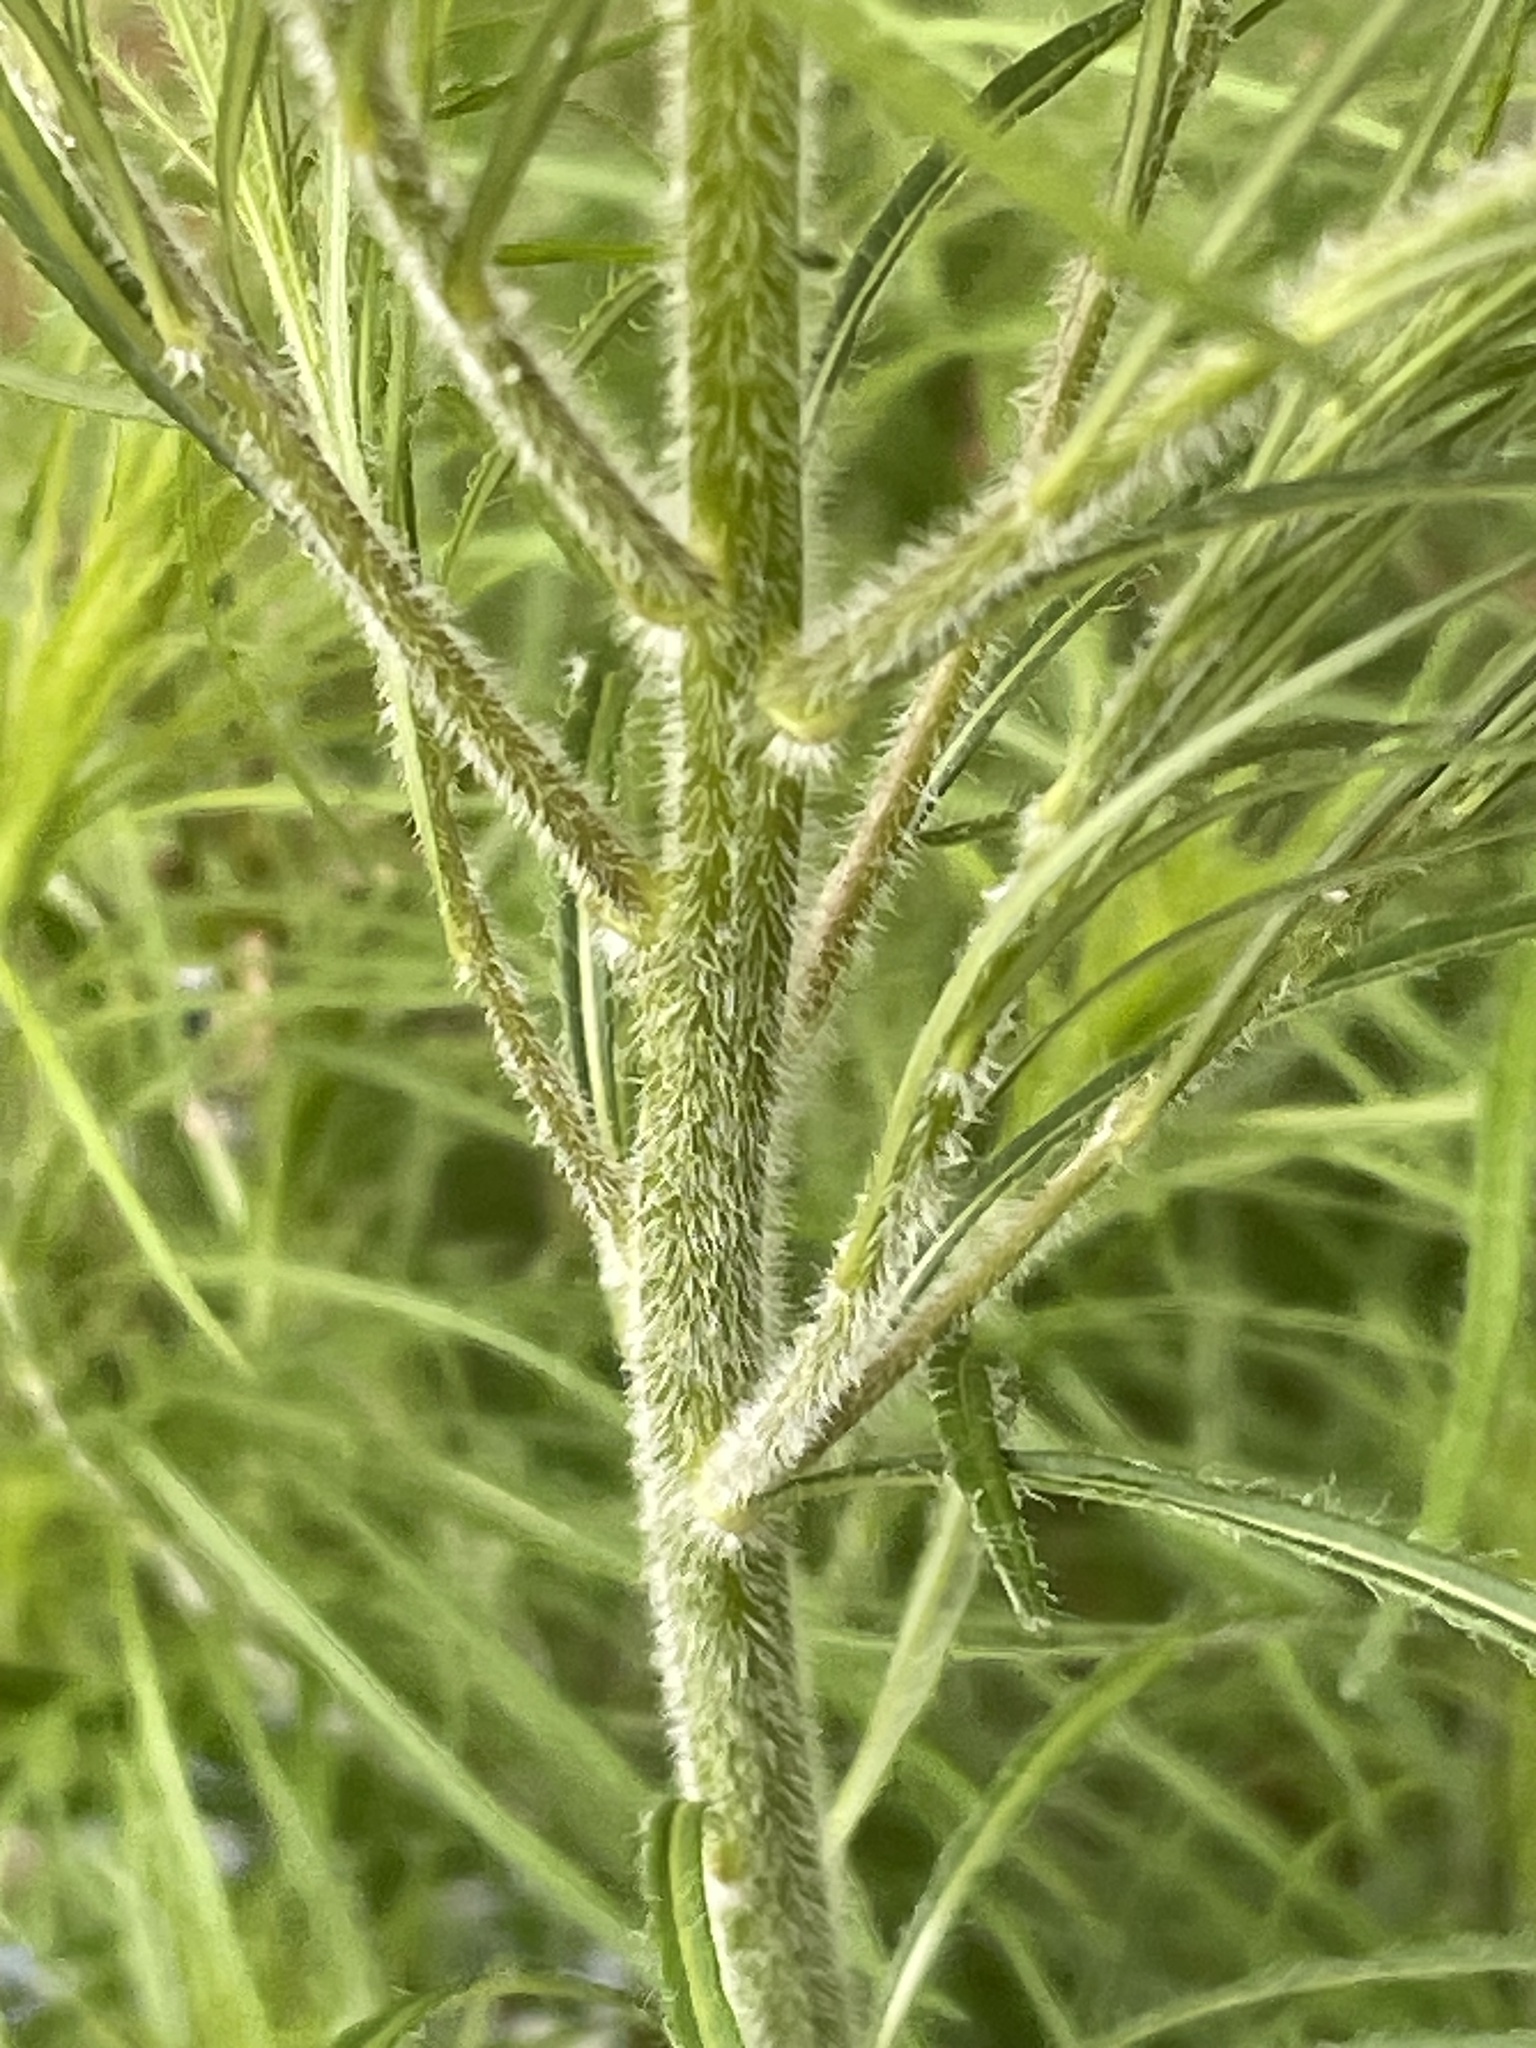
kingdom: Plantae
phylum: Tracheophyta
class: Magnoliopsida
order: Gentianales
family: Apocynaceae
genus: Amsonia
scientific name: Amsonia ciliata
